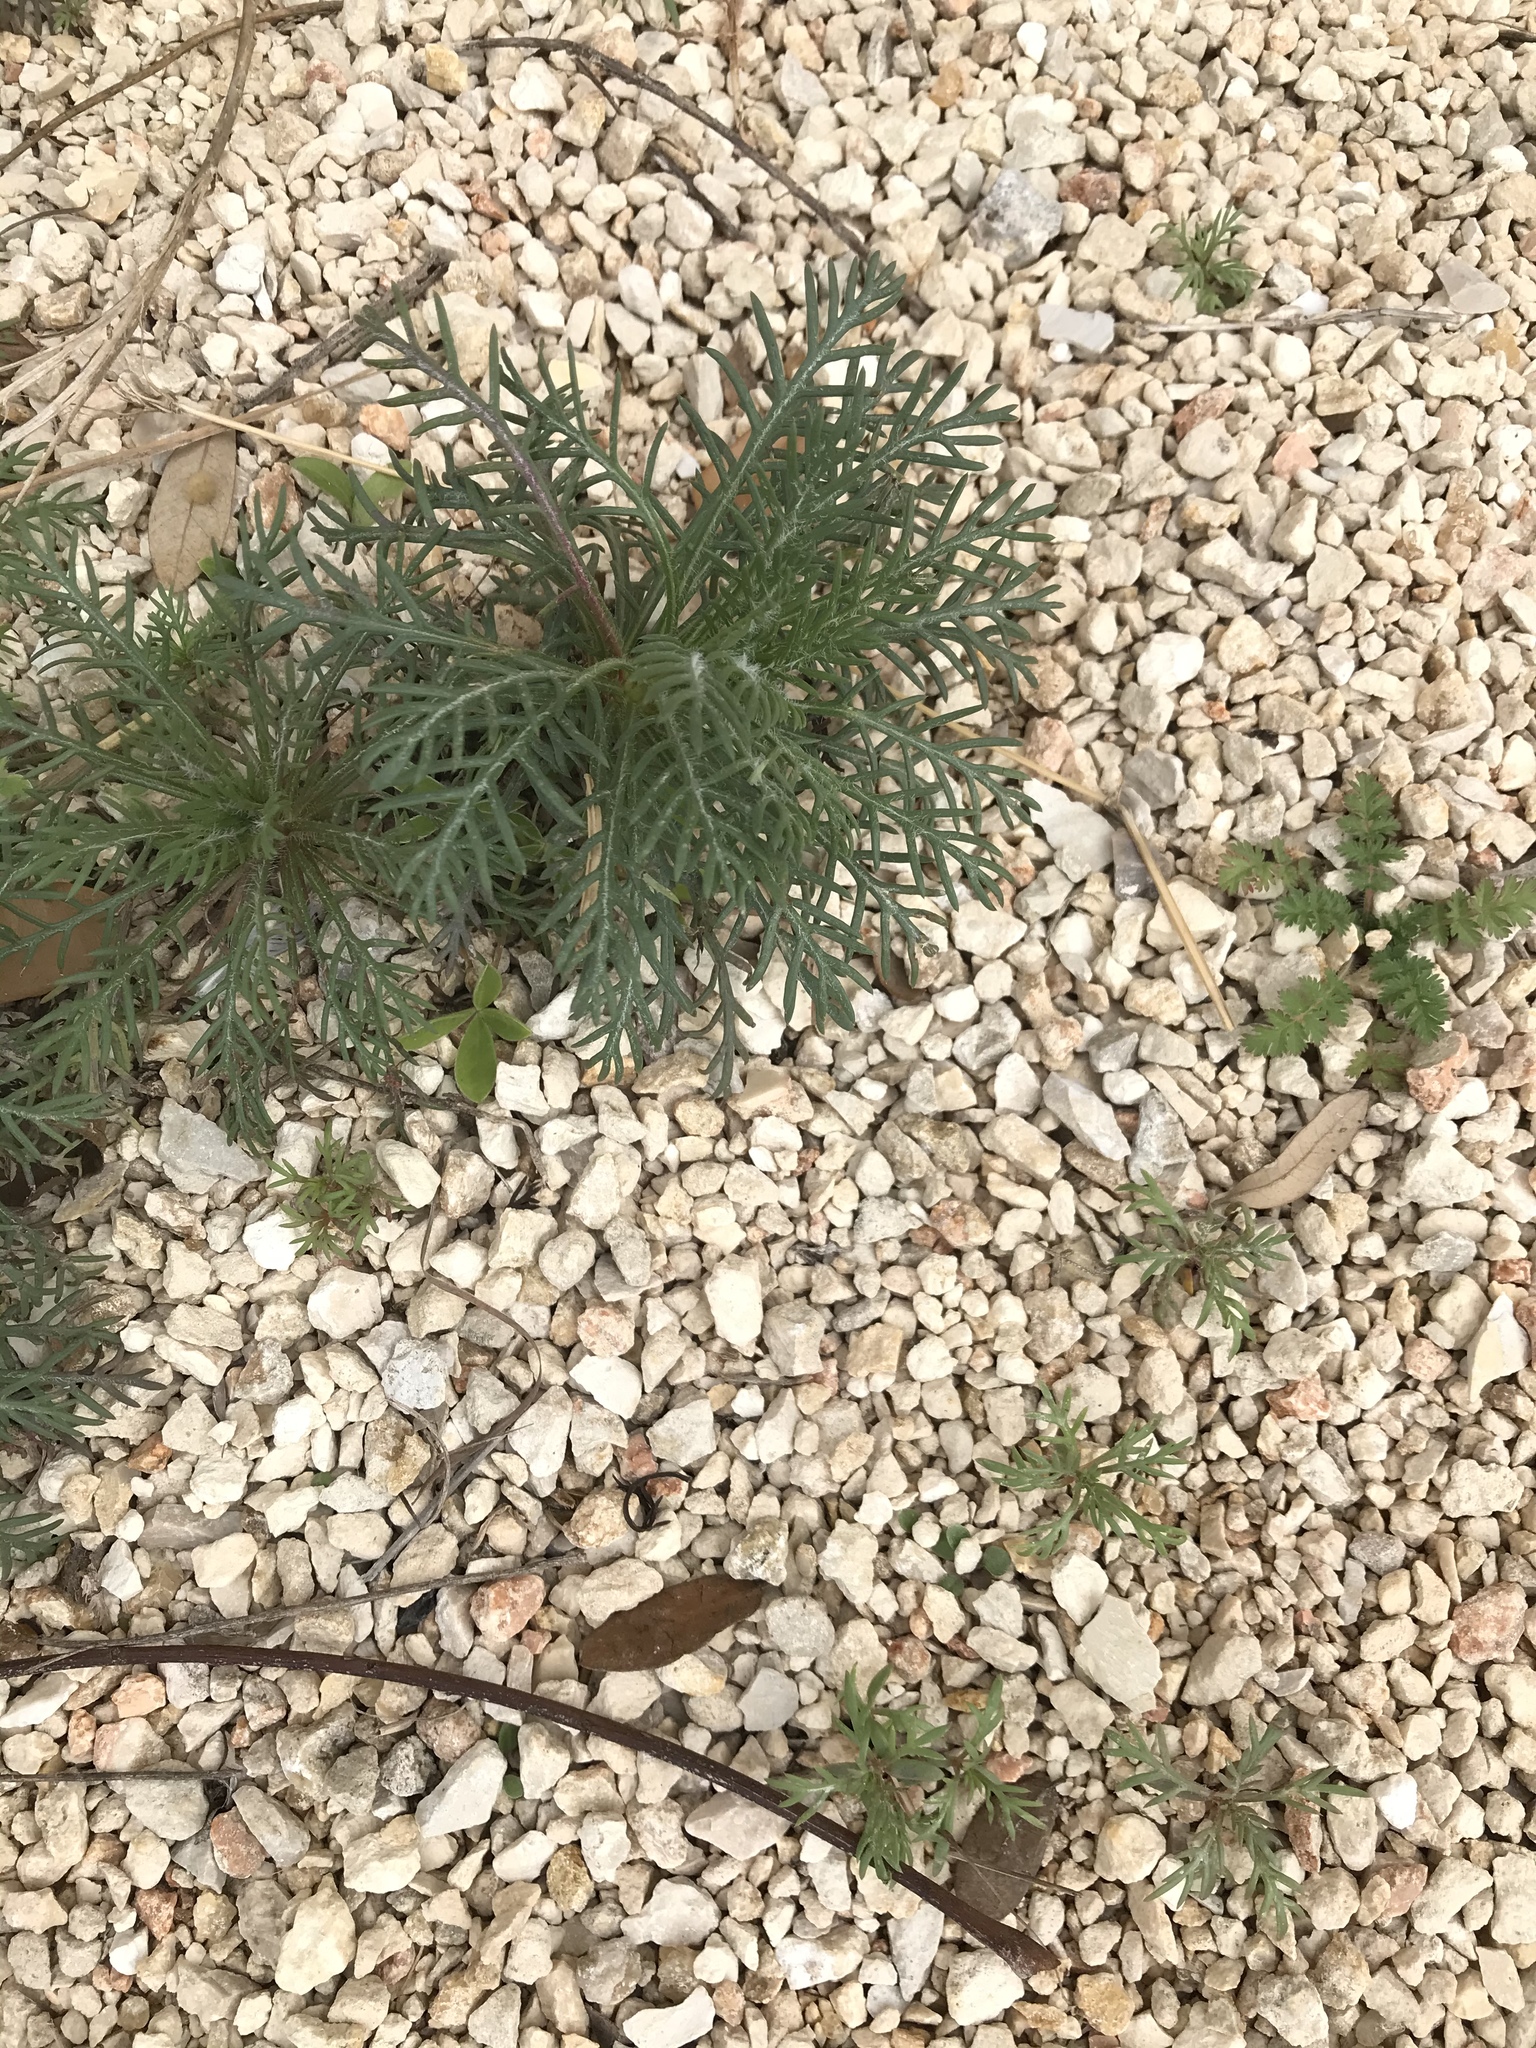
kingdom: Plantae
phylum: Tracheophyta
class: Magnoliopsida
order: Ericales
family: Polemoniaceae
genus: Ipomopsis
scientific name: Ipomopsis rubra
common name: Skyrocket
